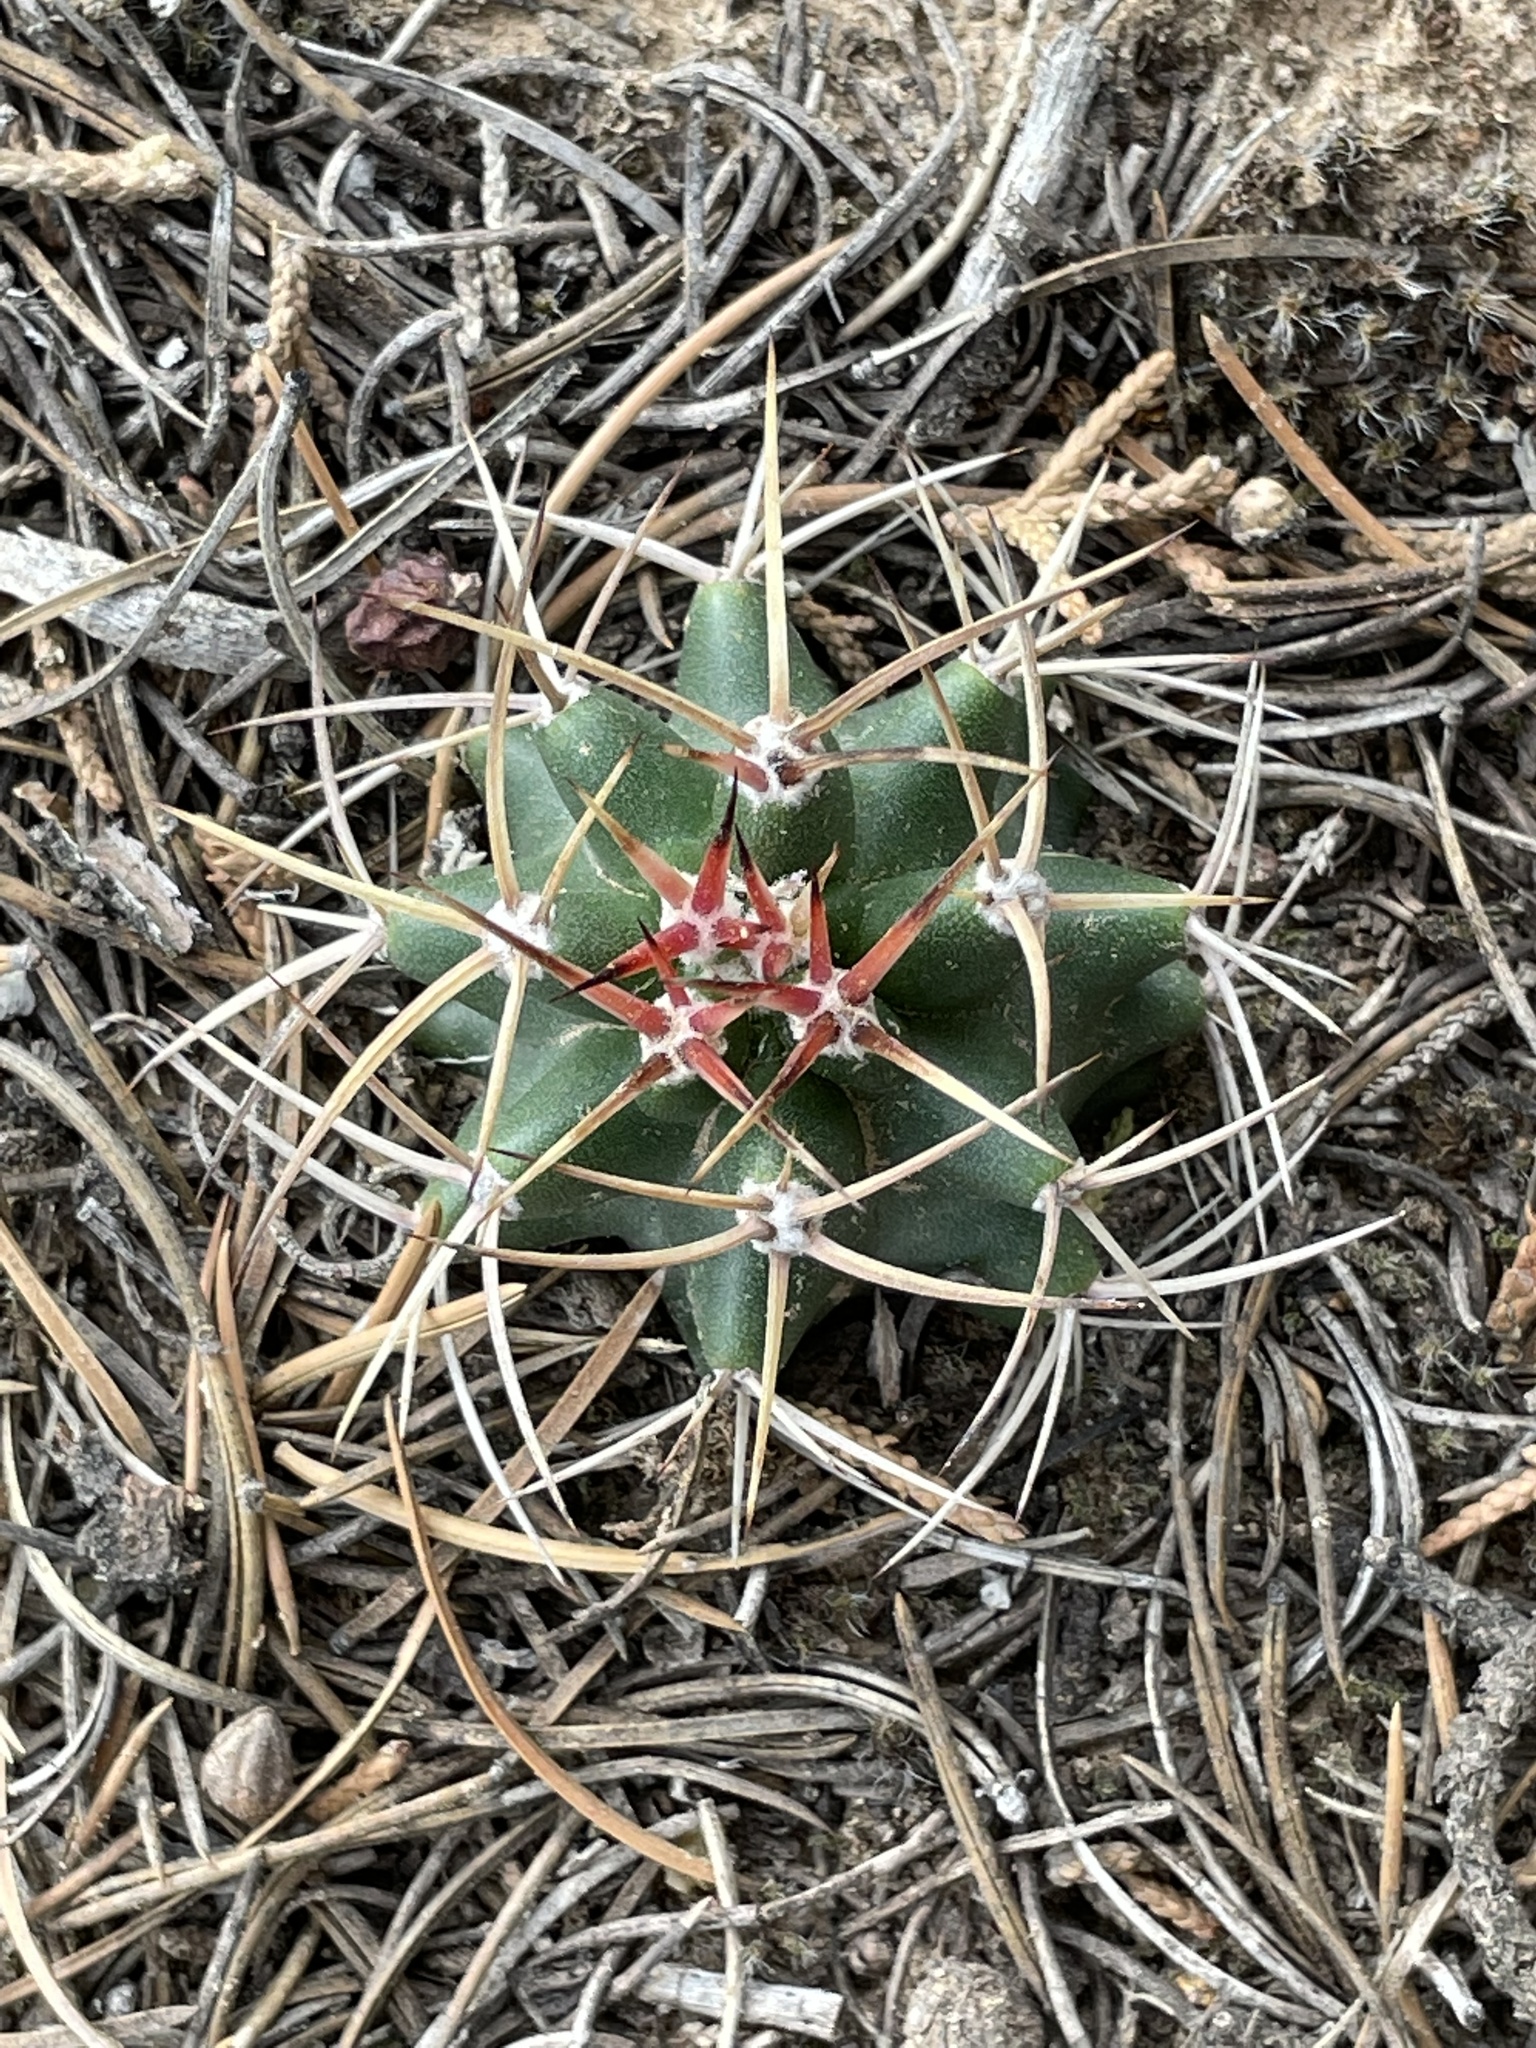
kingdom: Plantae
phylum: Tracheophyta
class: Magnoliopsida
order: Caryophyllales
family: Cactaceae
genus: Echinocereus
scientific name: Echinocereus triglochidiatus
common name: Claretcup hedgehog
